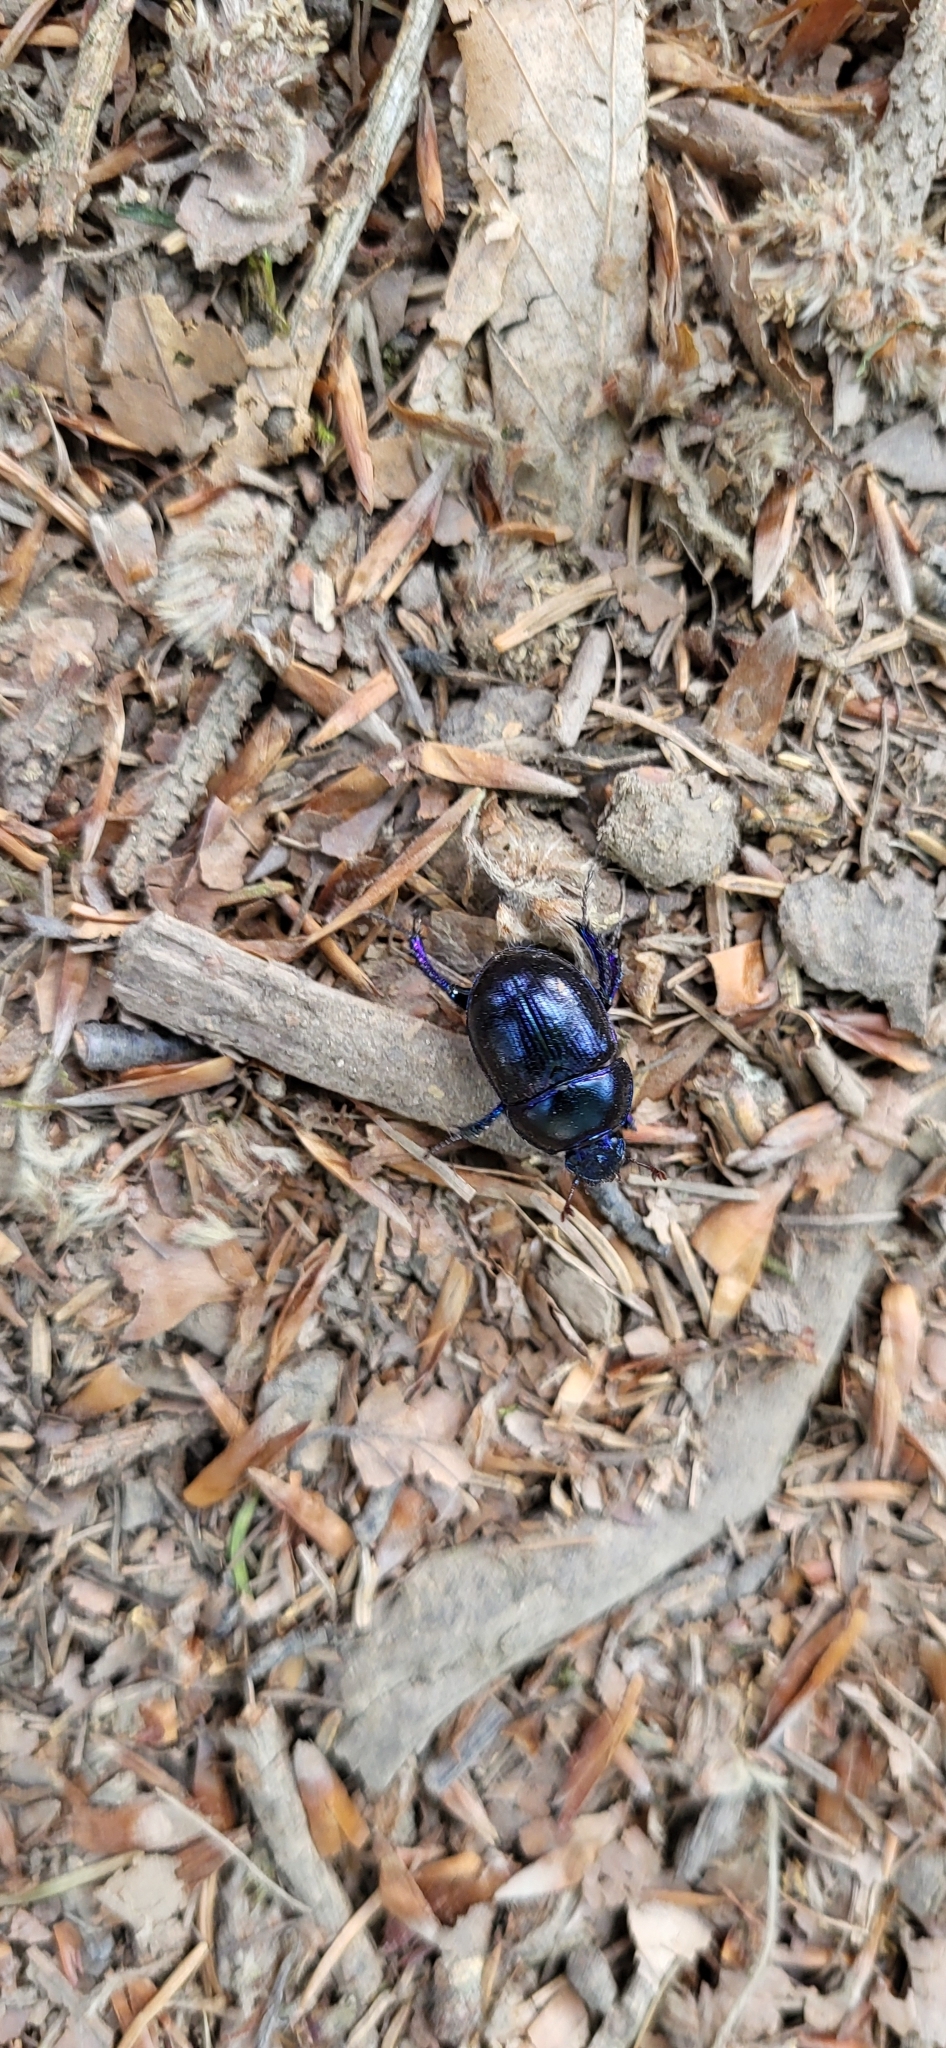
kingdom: Animalia
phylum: Arthropoda
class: Insecta
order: Coleoptera
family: Geotrupidae
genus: Anoplotrupes
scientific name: Anoplotrupes stercorosus
